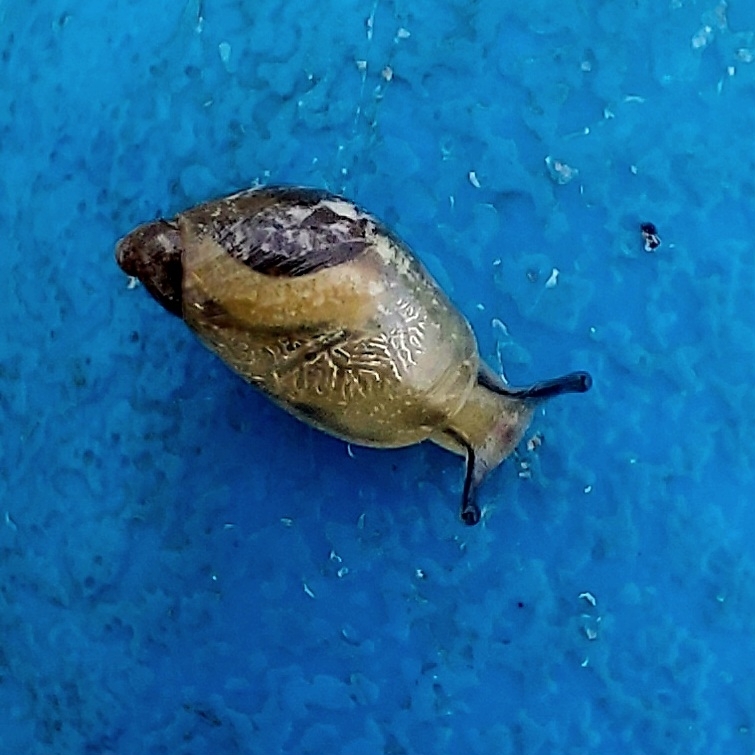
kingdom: Animalia
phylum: Mollusca
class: Gastropoda
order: Stylommatophora
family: Succineidae
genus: Succinea
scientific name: Succinea putris
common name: European ambersnail
